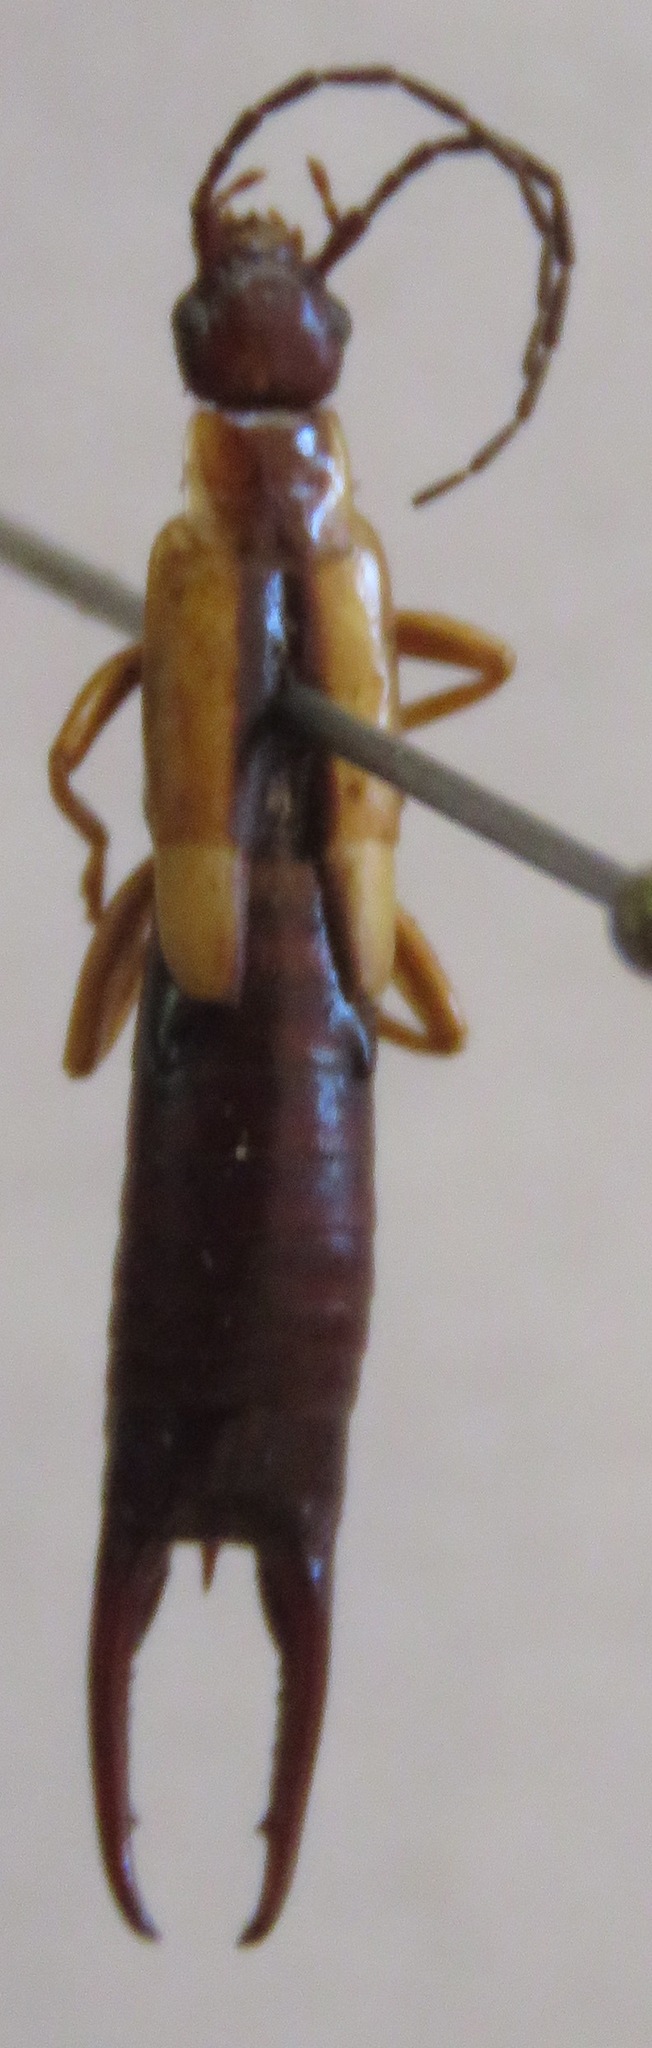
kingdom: Animalia
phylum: Arthropoda
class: Insecta
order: Dermaptera
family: Forficulidae
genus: Doru
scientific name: Doru lineare
